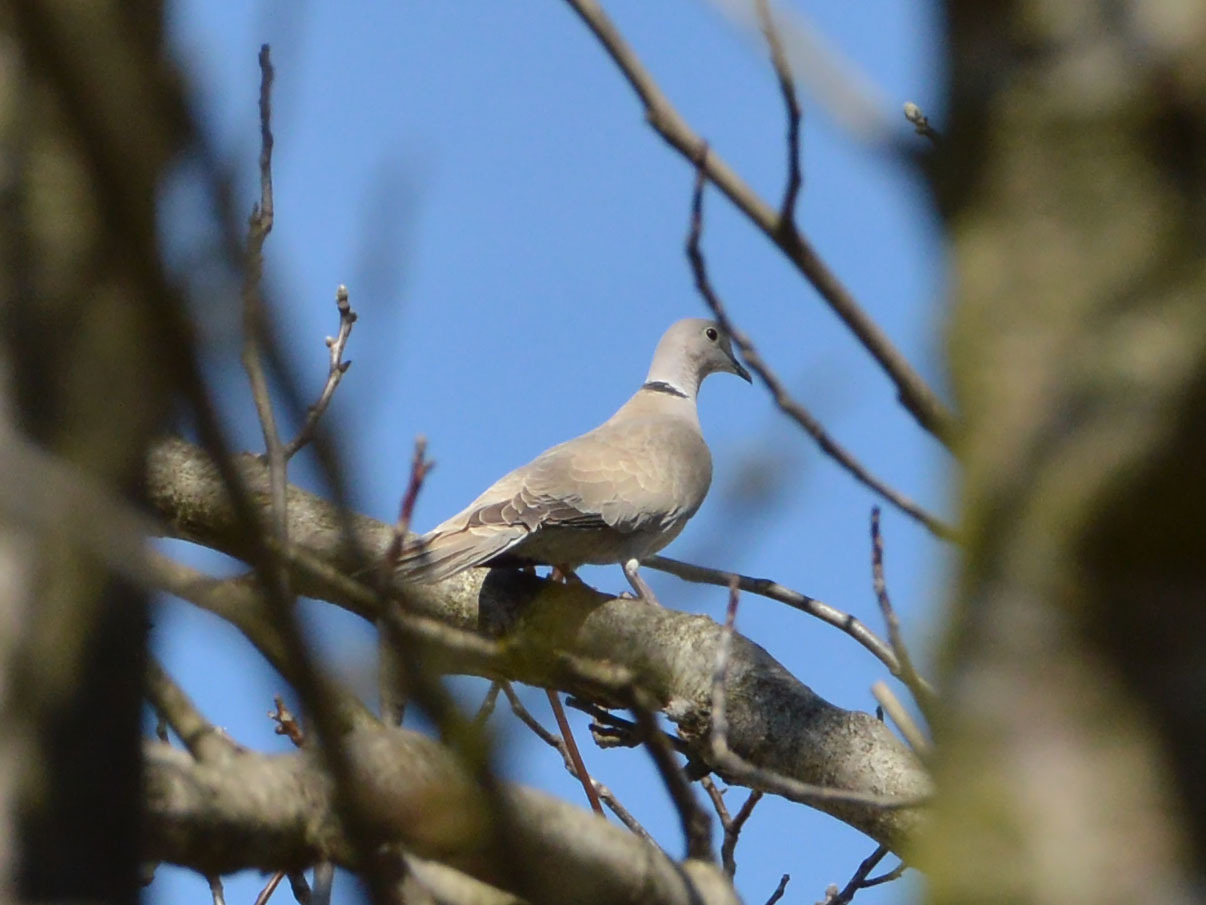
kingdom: Animalia
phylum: Chordata
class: Aves
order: Columbiformes
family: Columbidae
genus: Streptopelia
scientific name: Streptopelia decaocto
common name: Eurasian collared dove
